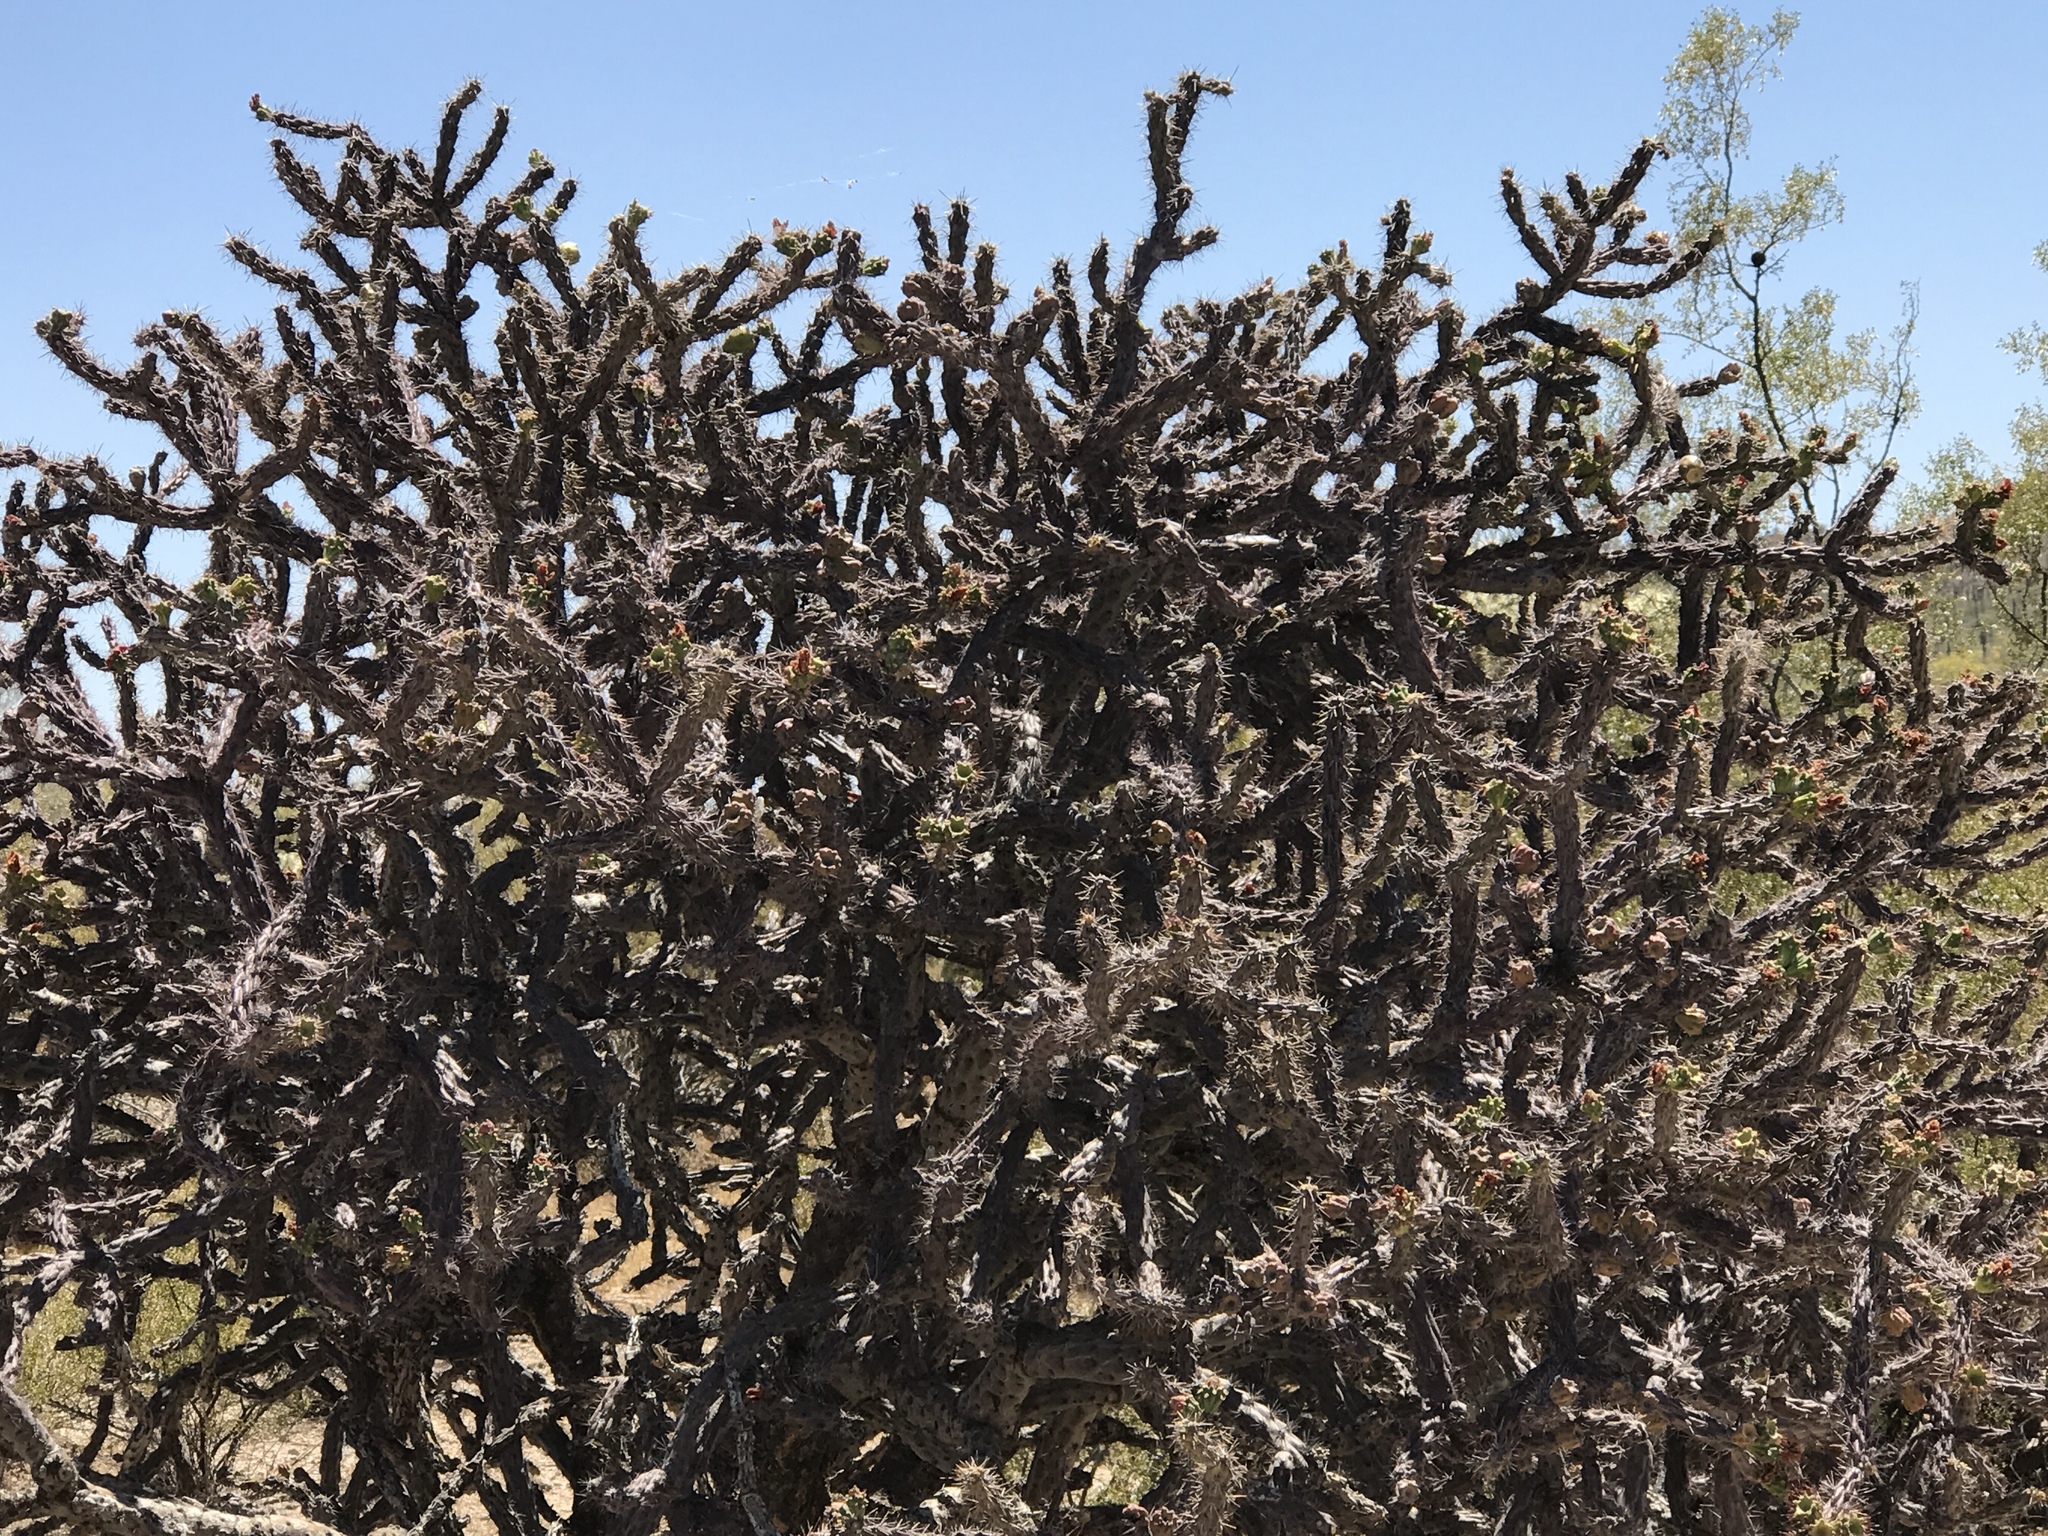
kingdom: Plantae
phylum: Tracheophyta
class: Magnoliopsida
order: Caryophyllales
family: Cactaceae
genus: Cylindropuntia
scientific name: Cylindropuntia thurberi
